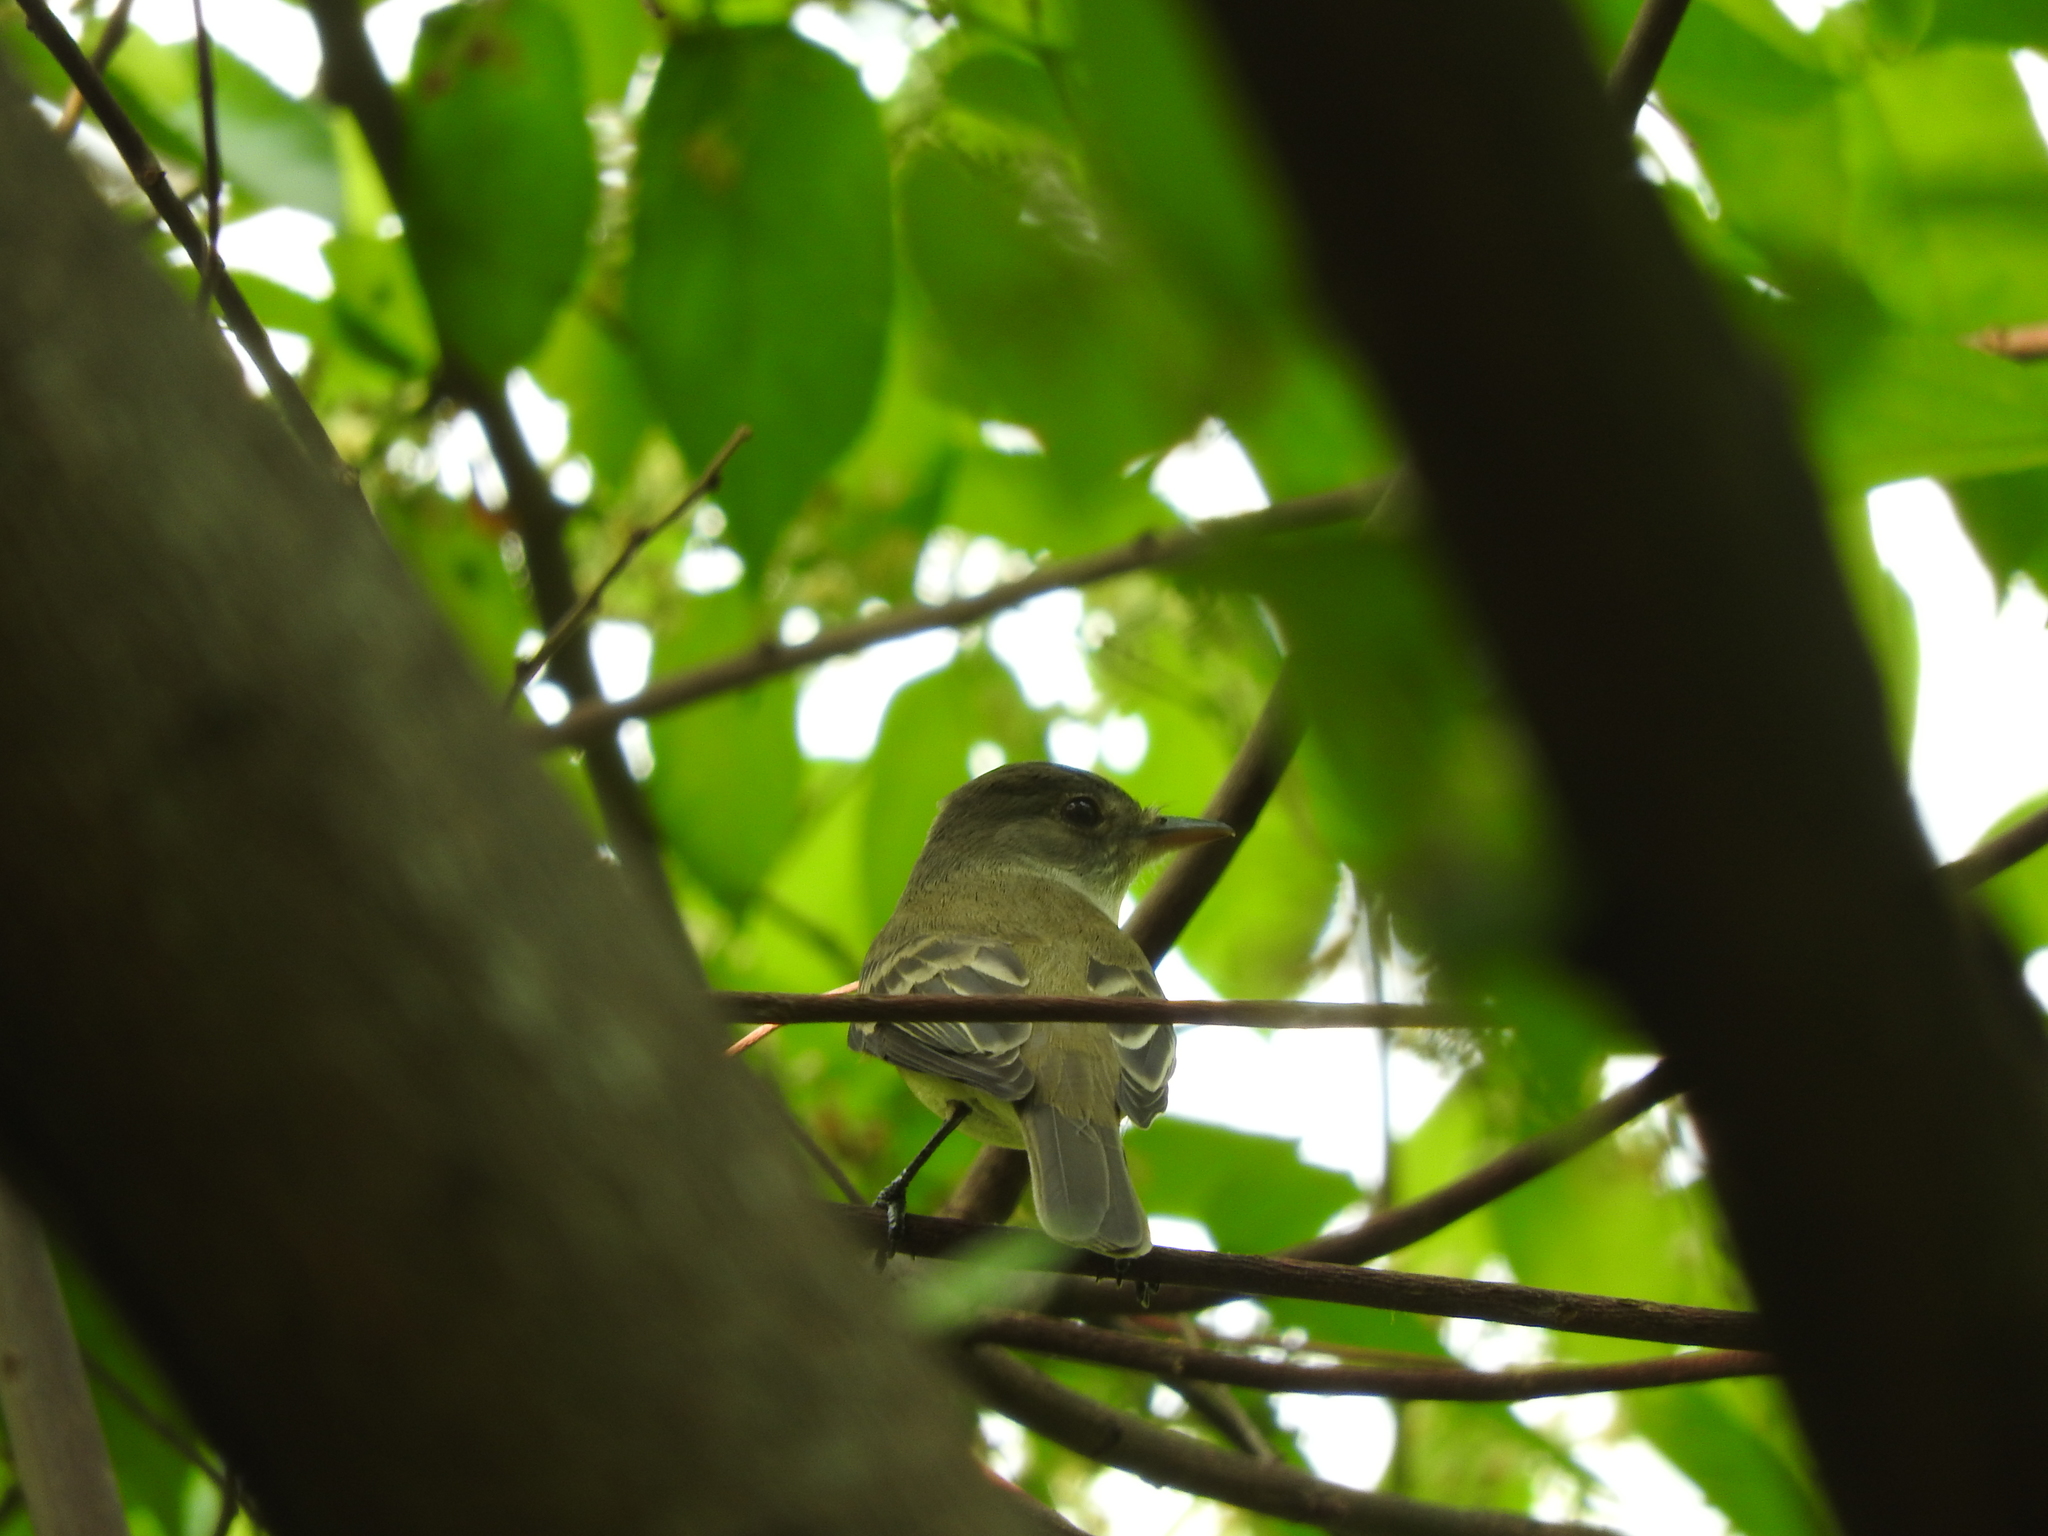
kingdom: Animalia
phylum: Chordata
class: Aves
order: Passeriformes
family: Tyrannidae
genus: Empidonax
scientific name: Empidonax alnorum
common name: Alder flycatcher
